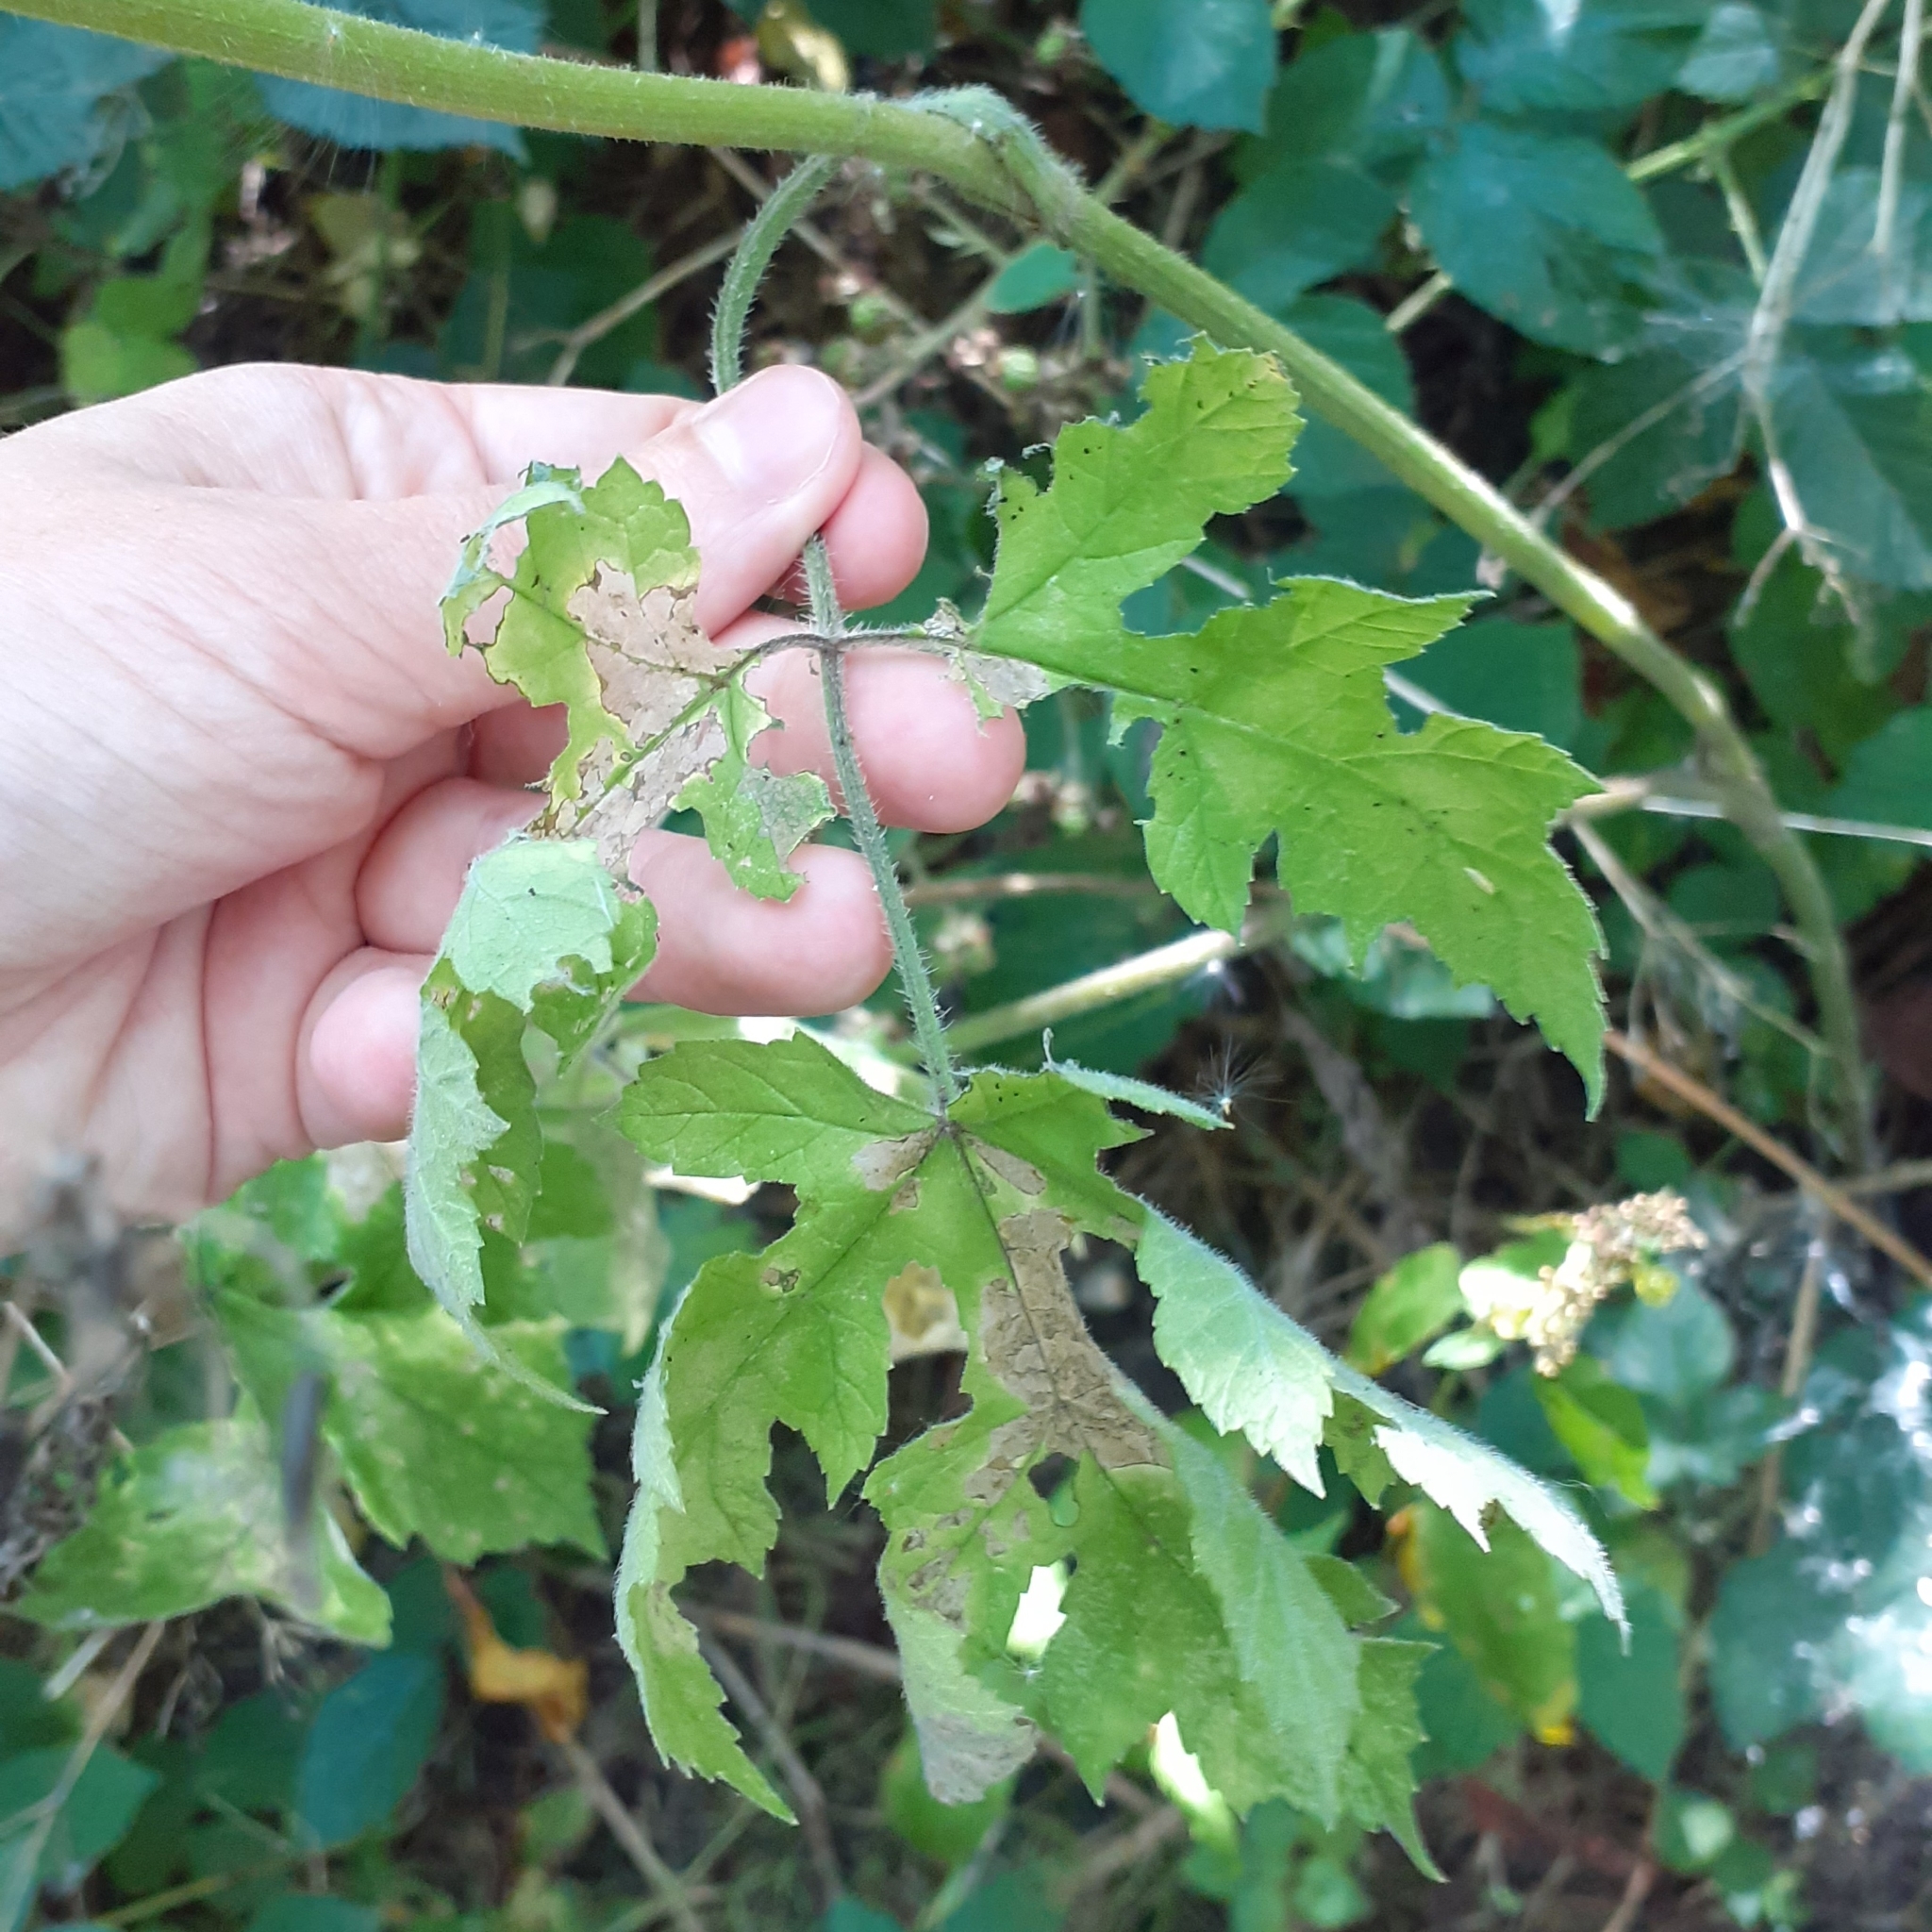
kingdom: Plantae
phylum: Tracheophyta
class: Magnoliopsida
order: Apiales
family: Apiaceae
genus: Heracleum
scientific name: Heracleum sphondylium
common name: Hogweed
